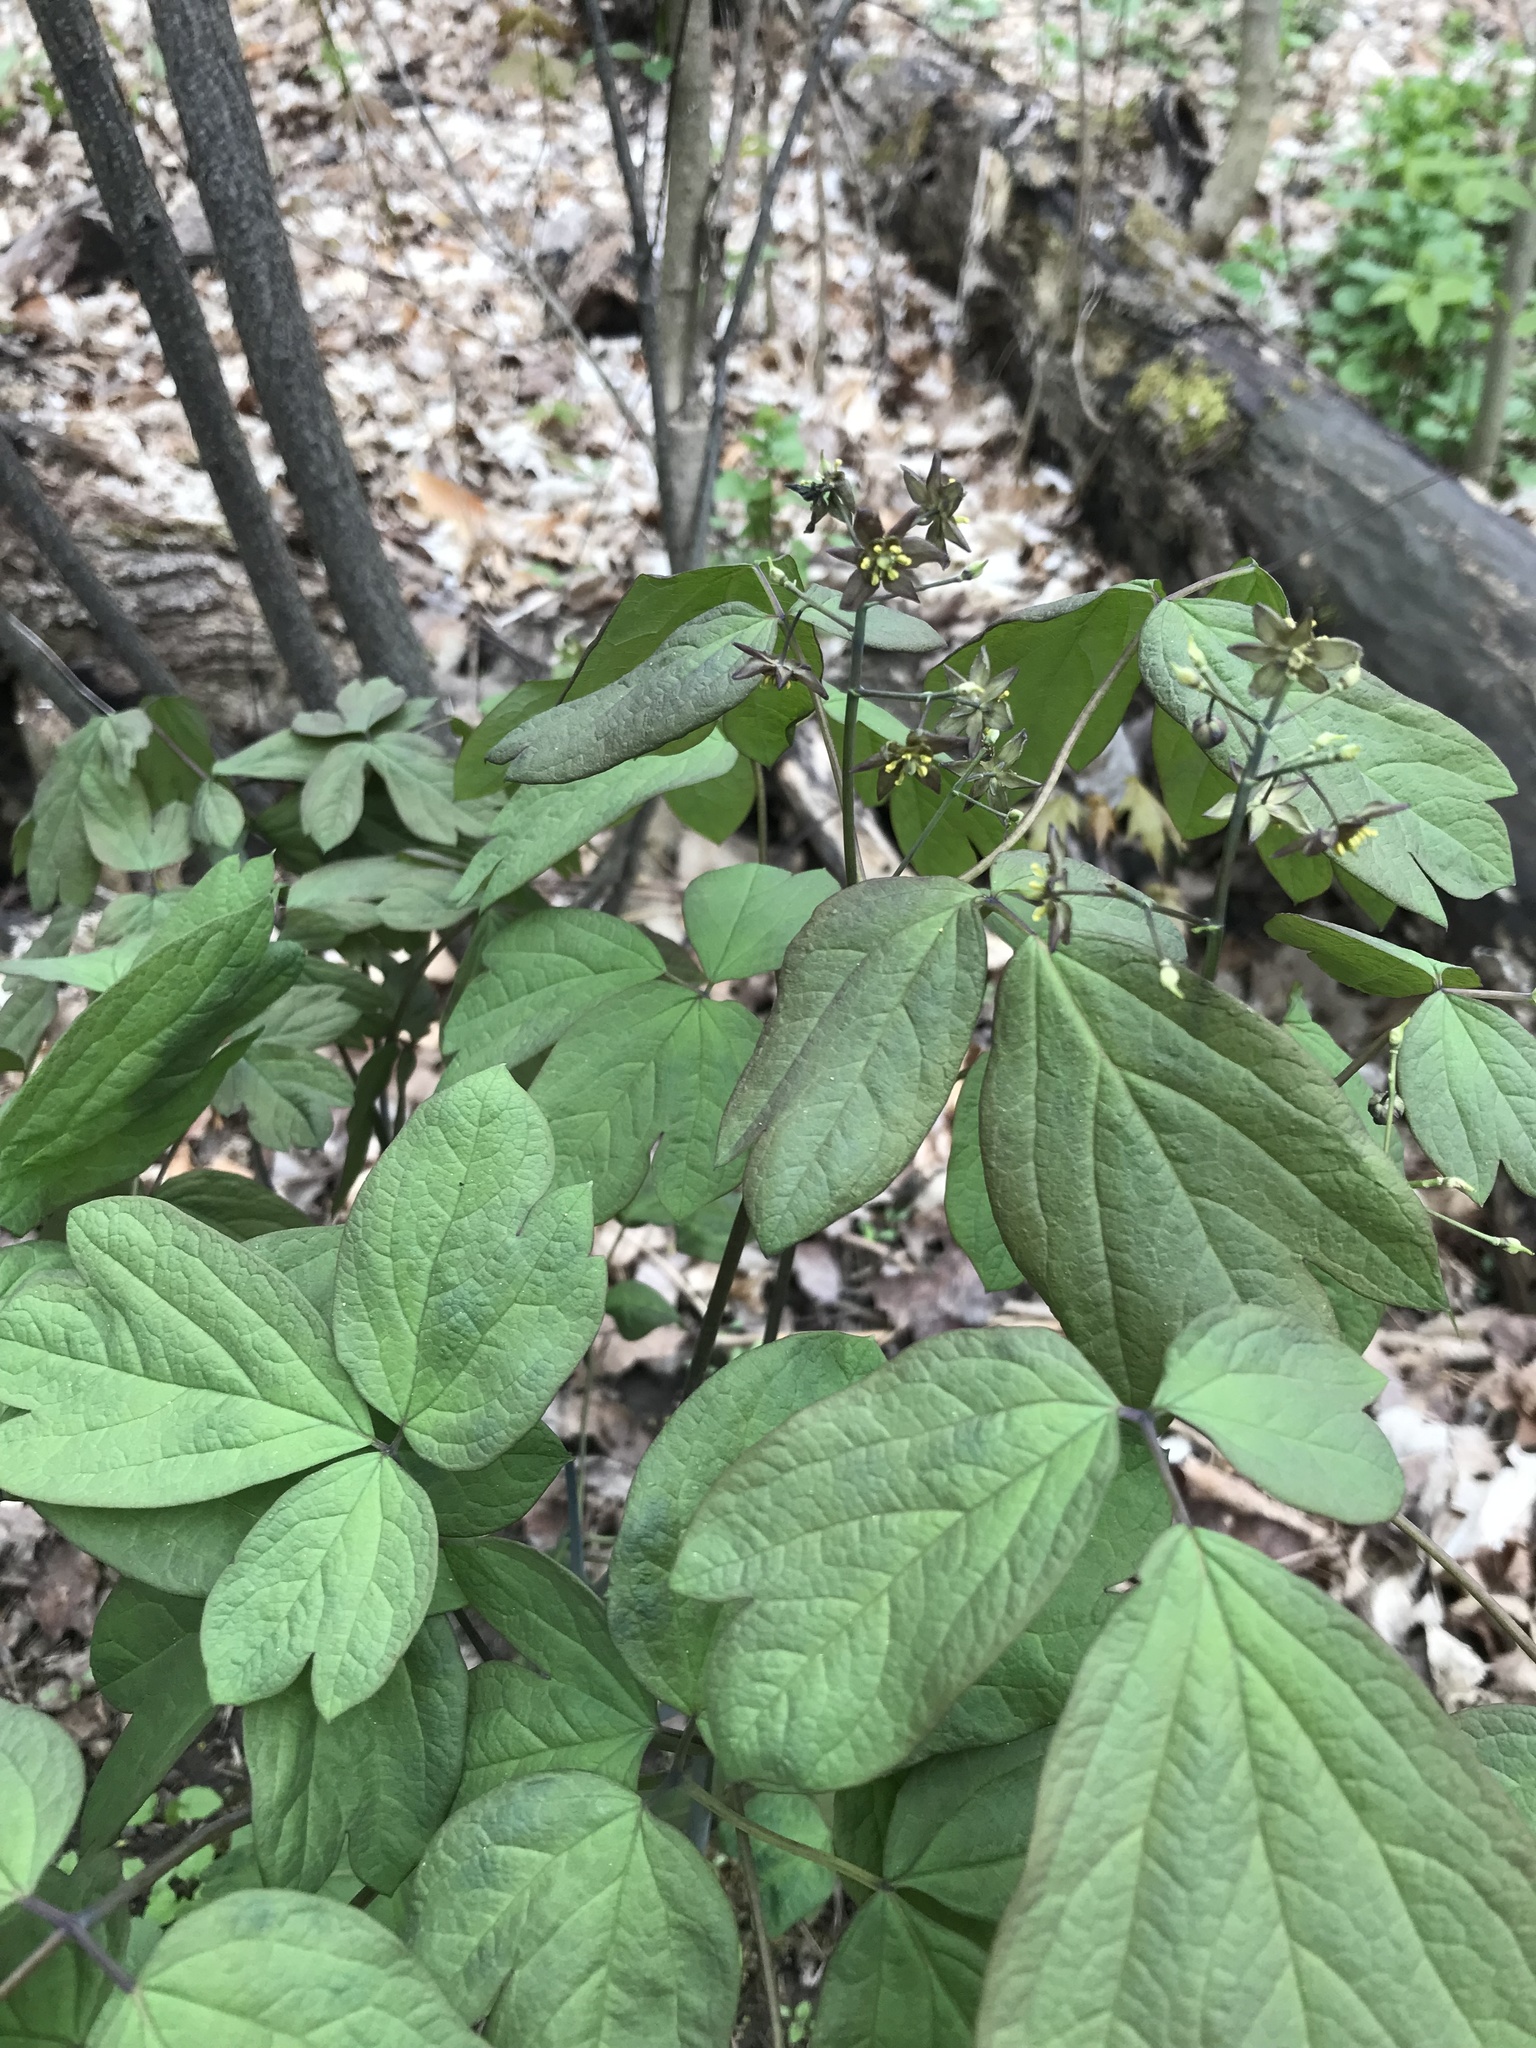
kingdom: Plantae
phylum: Tracheophyta
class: Magnoliopsida
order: Ranunculales
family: Berberidaceae
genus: Caulophyllum
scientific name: Caulophyllum giganteum
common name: Blue cohosh
